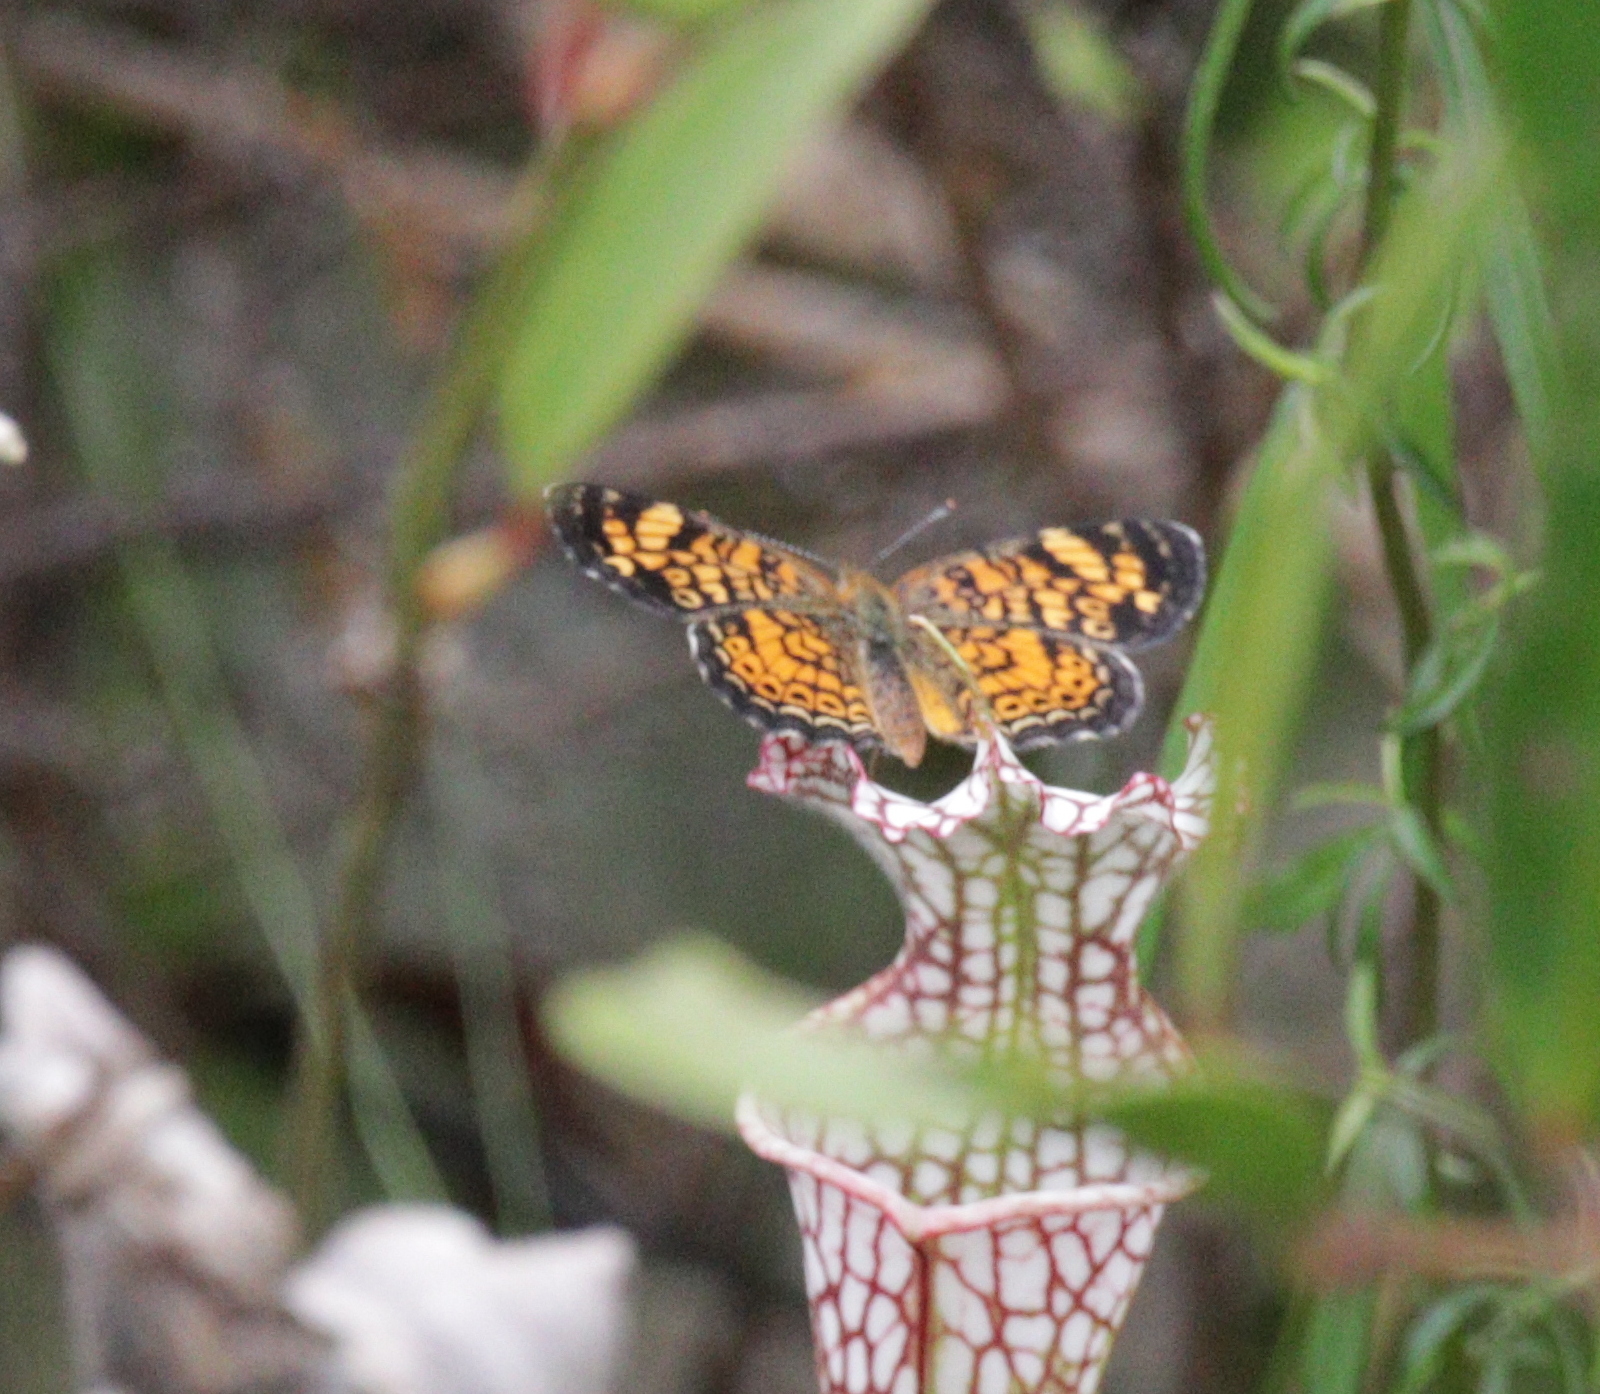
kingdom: Animalia
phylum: Arthropoda
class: Insecta
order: Lepidoptera
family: Nymphalidae
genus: Phyciodes
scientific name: Phyciodes tharos
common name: Pearl crescent
